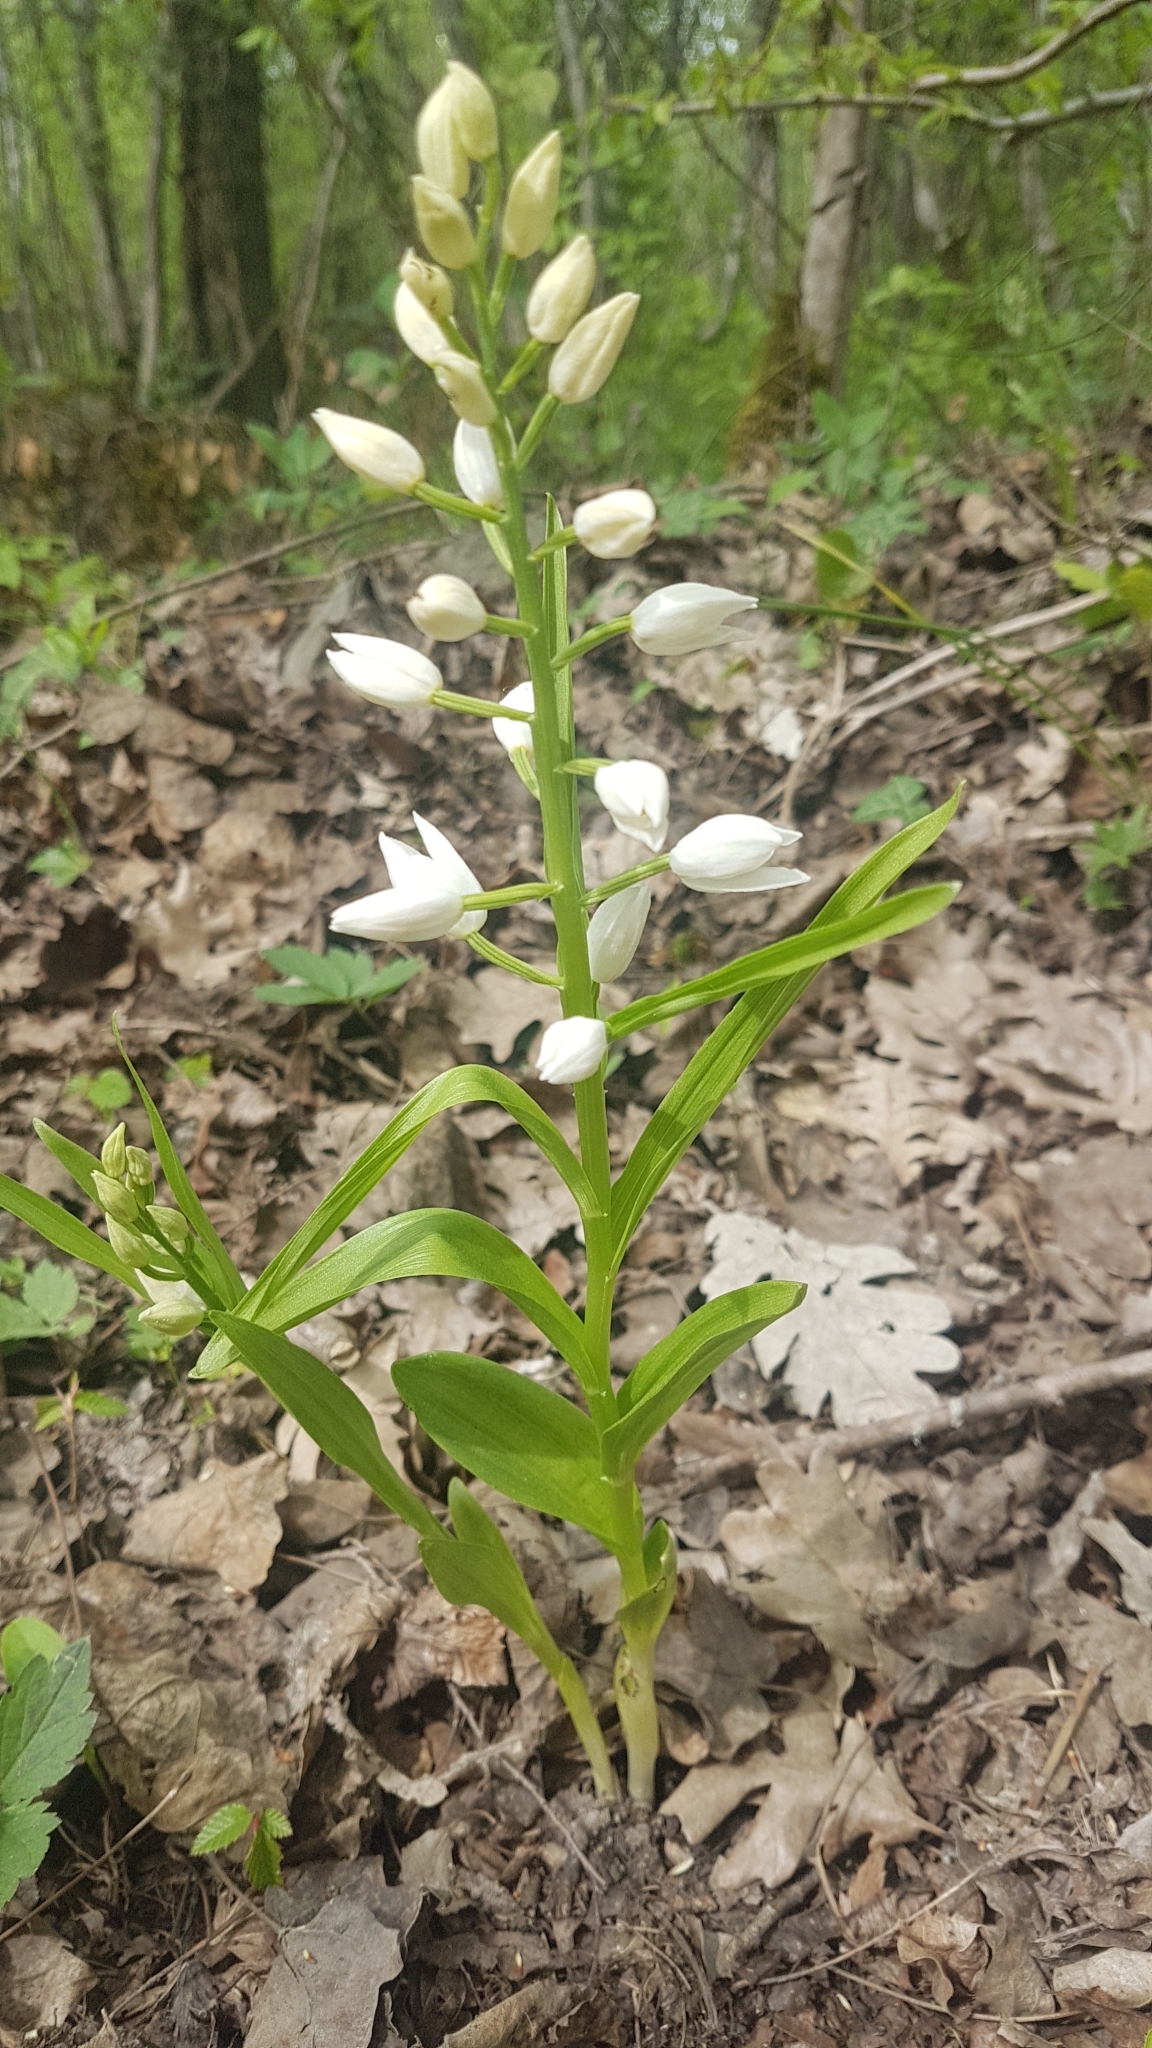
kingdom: Plantae
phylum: Tracheophyta
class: Liliopsida
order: Asparagales
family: Orchidaceae
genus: Cephalanthera
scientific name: Cephalanthera longifolia
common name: Narrow-leaved helleborine
